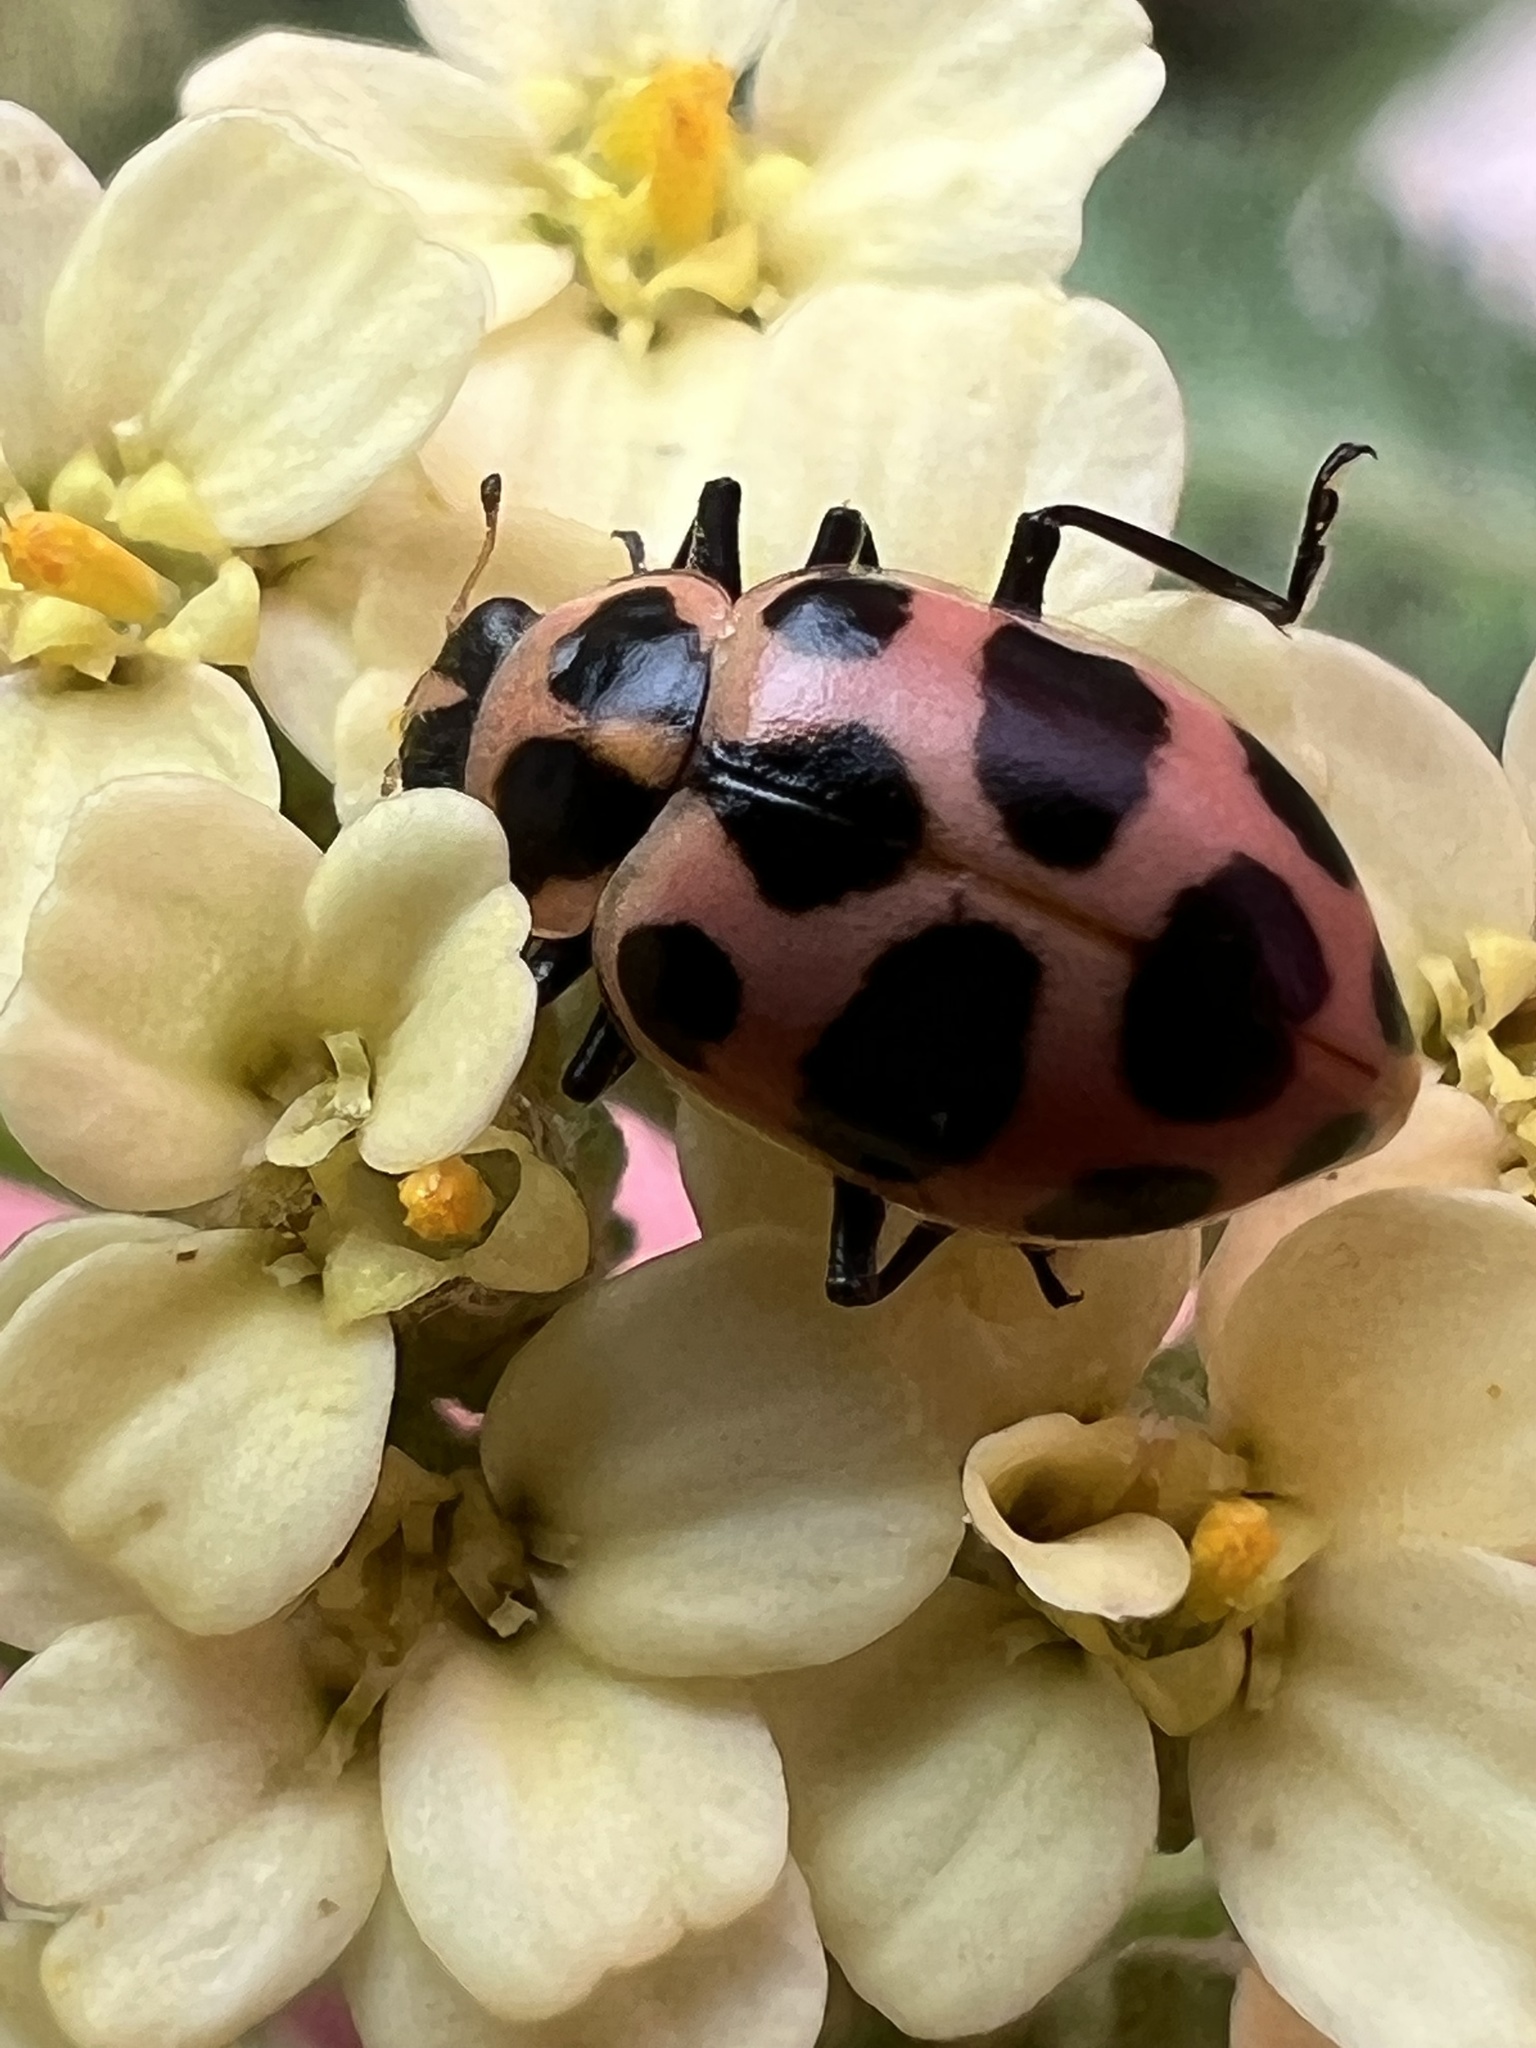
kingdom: Animalia
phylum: Arthropoda
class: Insecta
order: Coleoptera
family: Coccinellidae
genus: Coleomegilla
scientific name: Coleomegilla maculata
